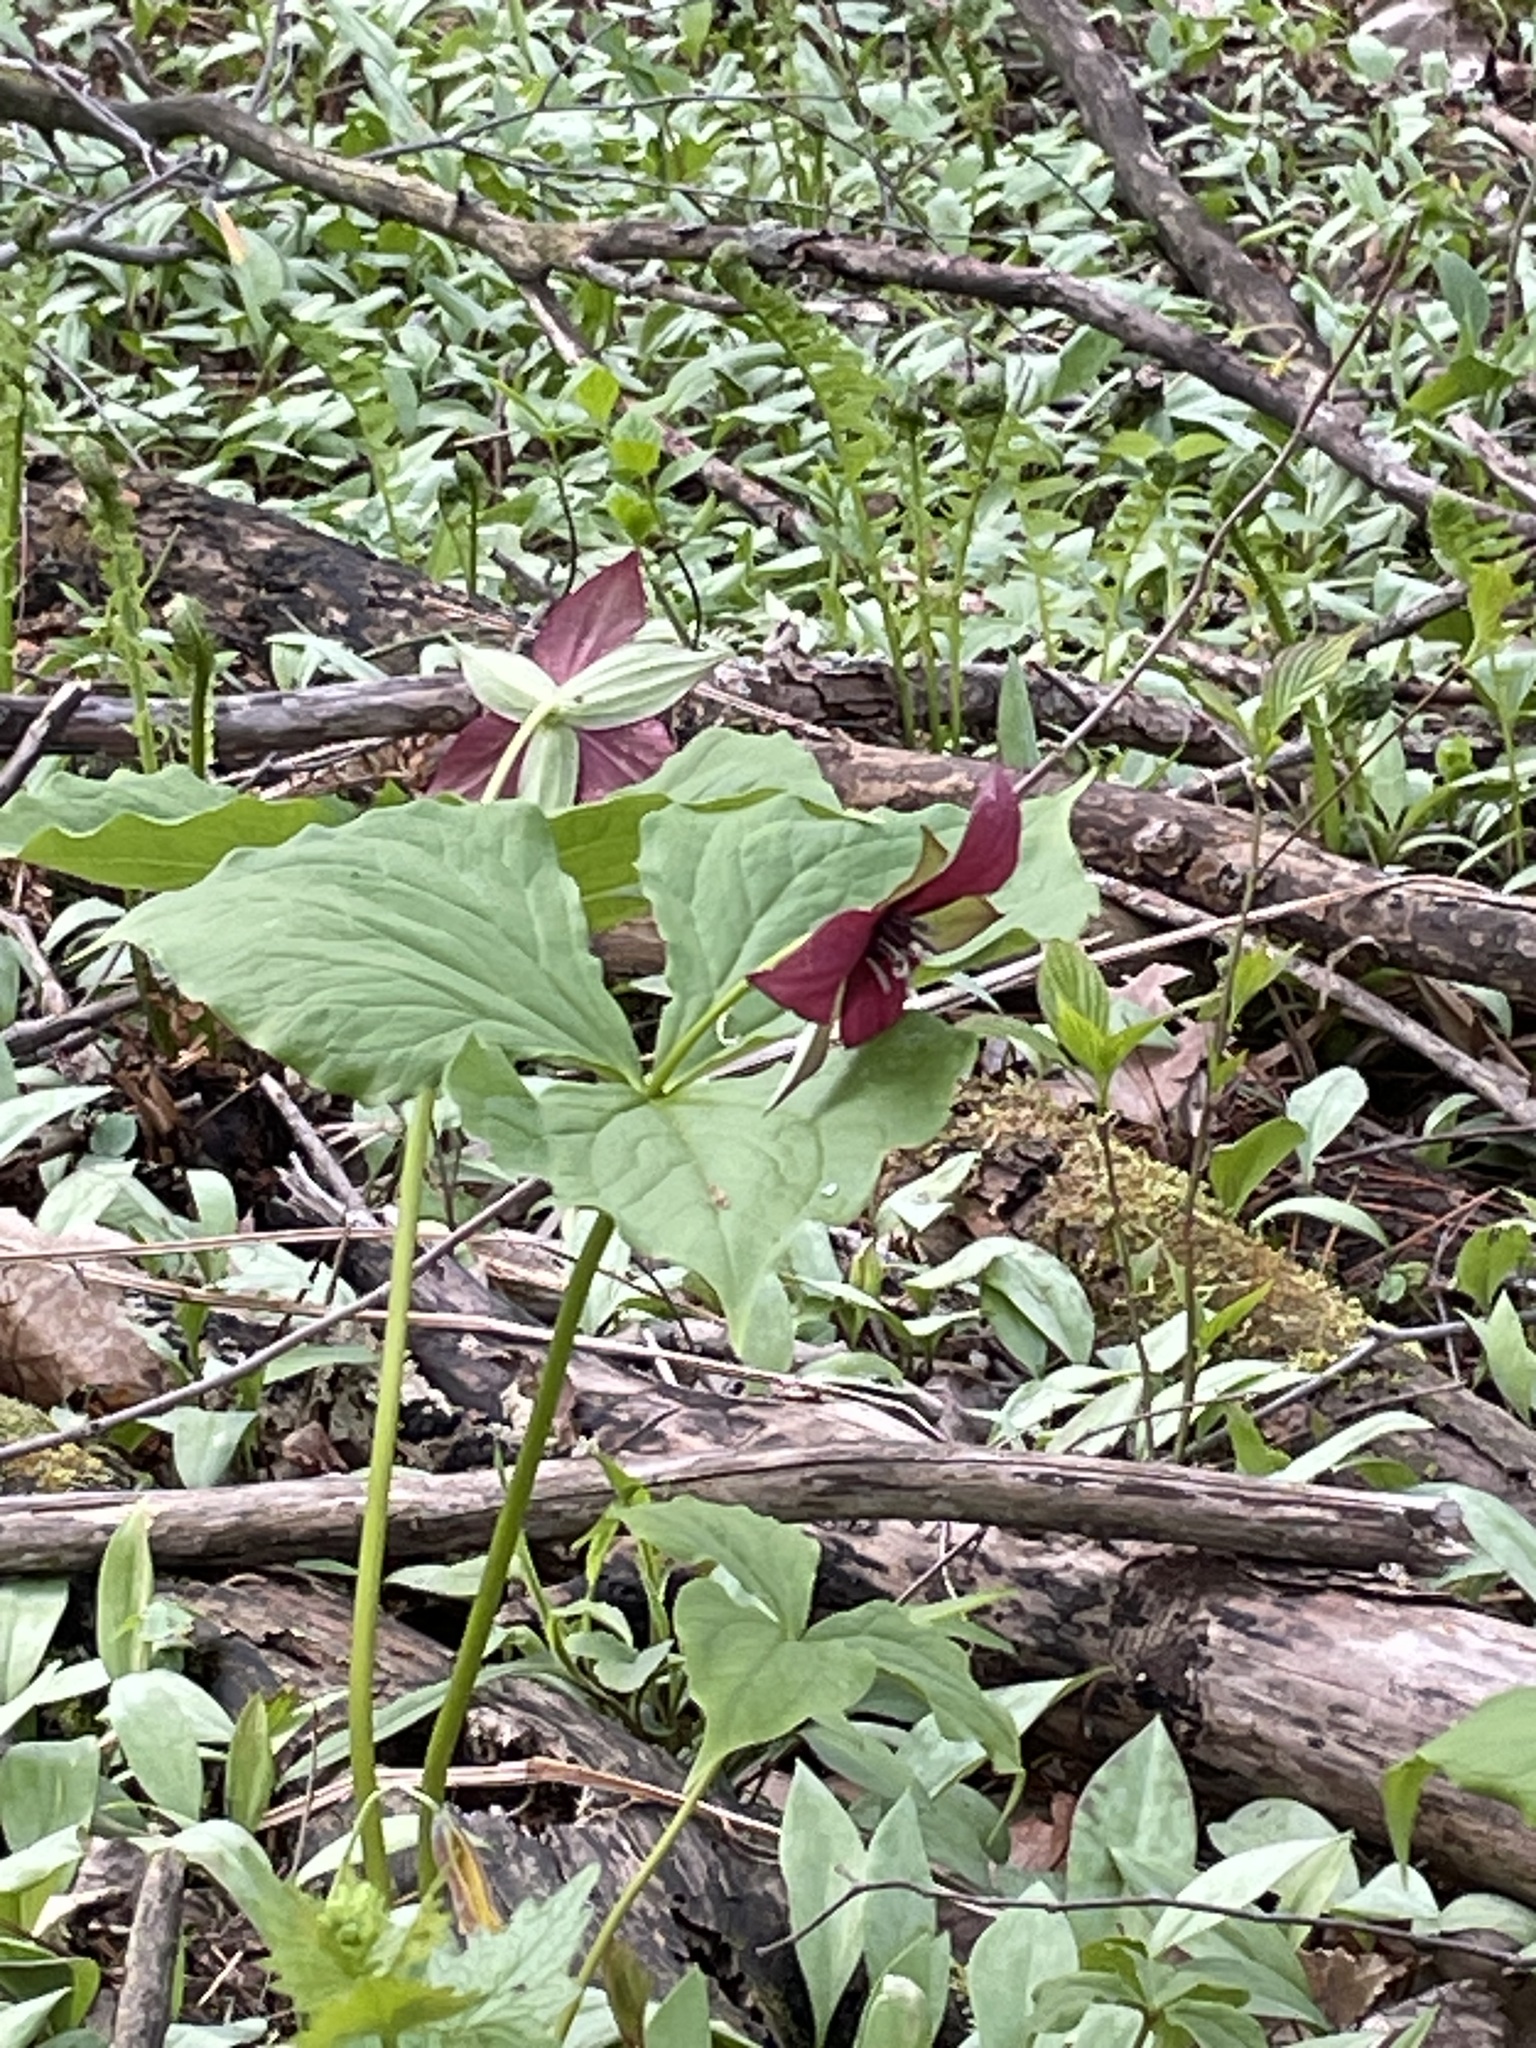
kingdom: Plantae
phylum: Tracheophyta
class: Liliopsida
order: Liliales
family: Melanthiaceae
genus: Trillium
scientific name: Trillium erectum
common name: Purple trillium
